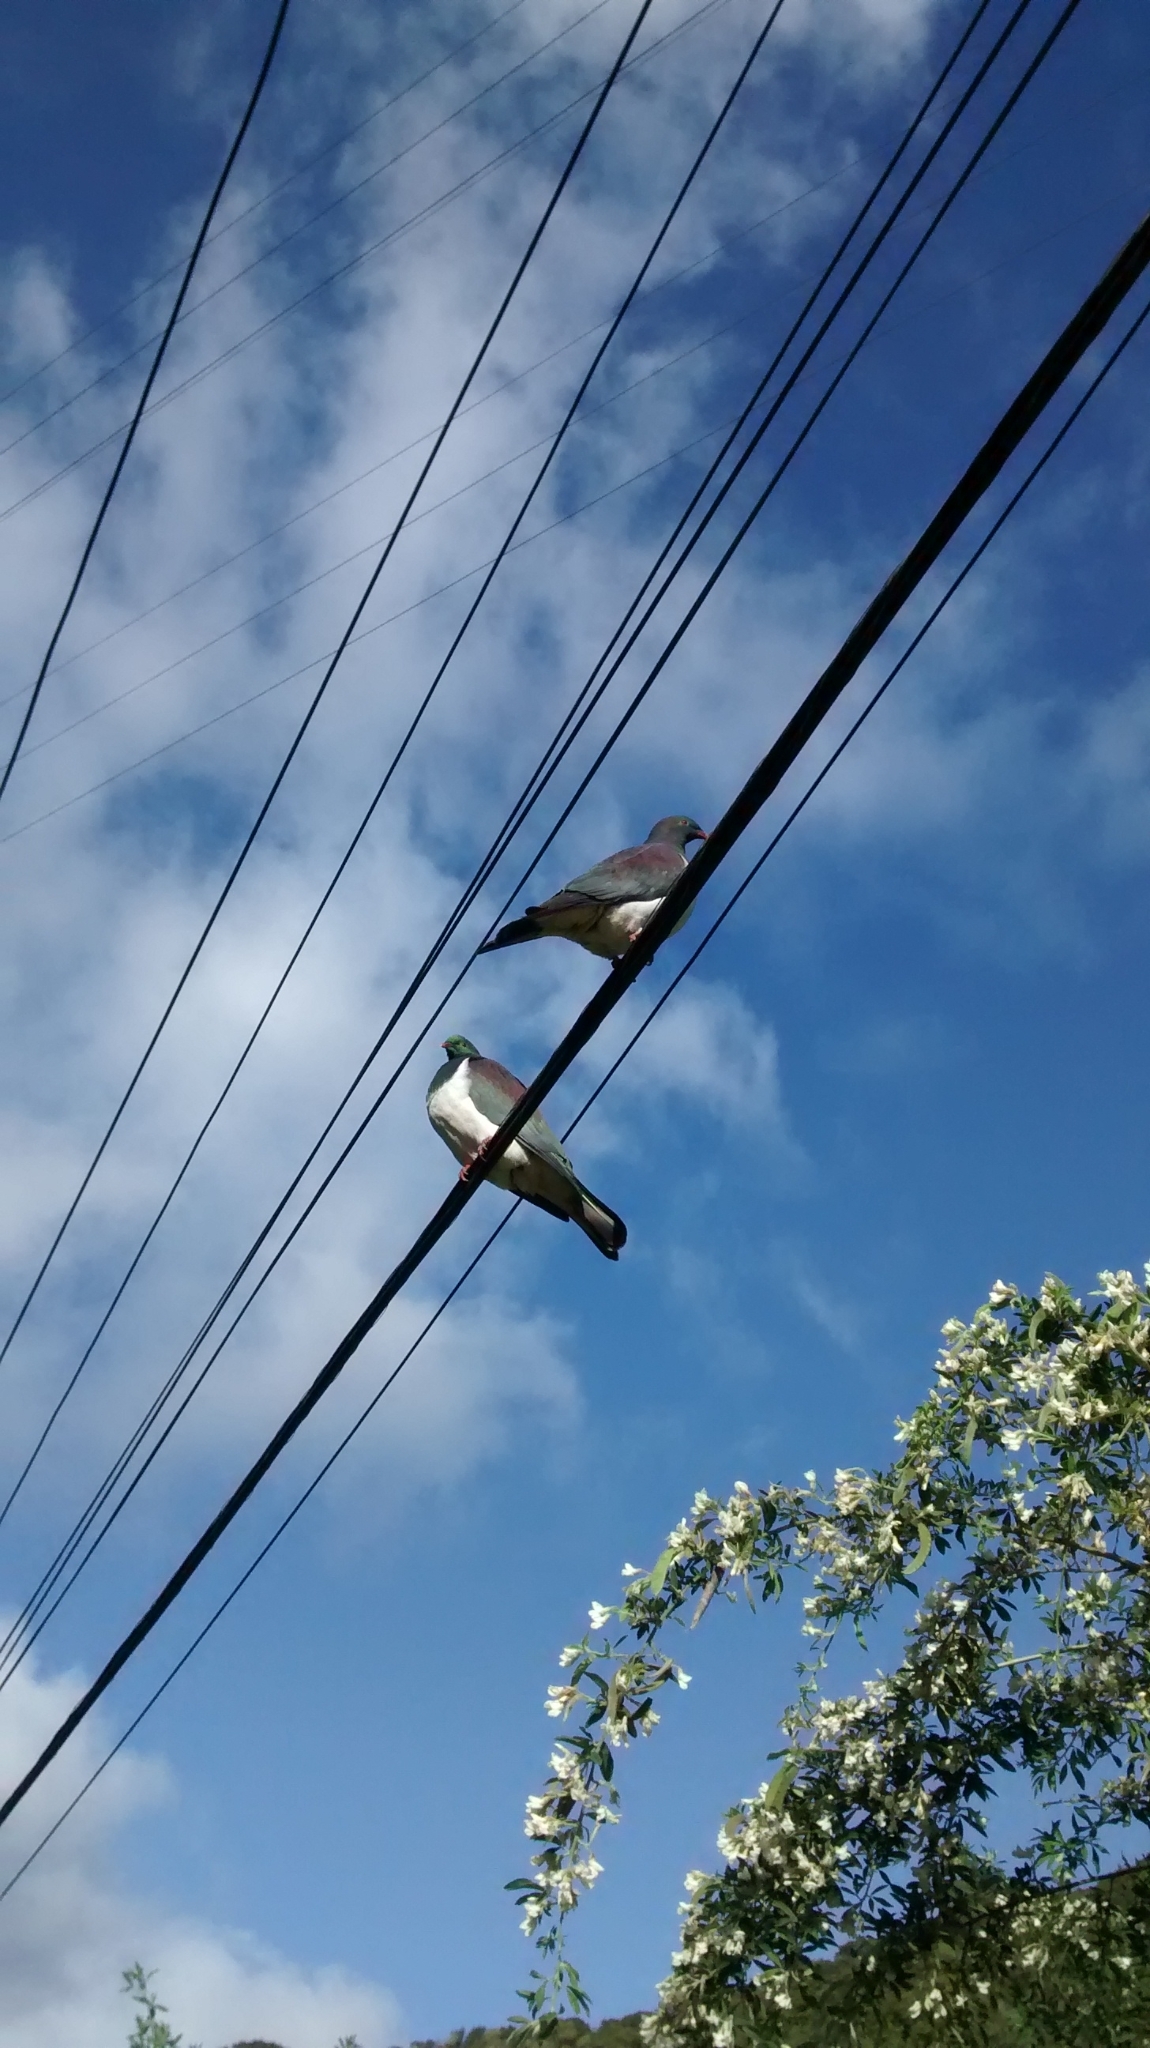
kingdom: Animalia
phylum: Chordata
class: Aves
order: Columbiformes
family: Columbidae
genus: Hemiphaga
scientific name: Hemiphaga novaeseelandiae
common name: New zealand pigeon
